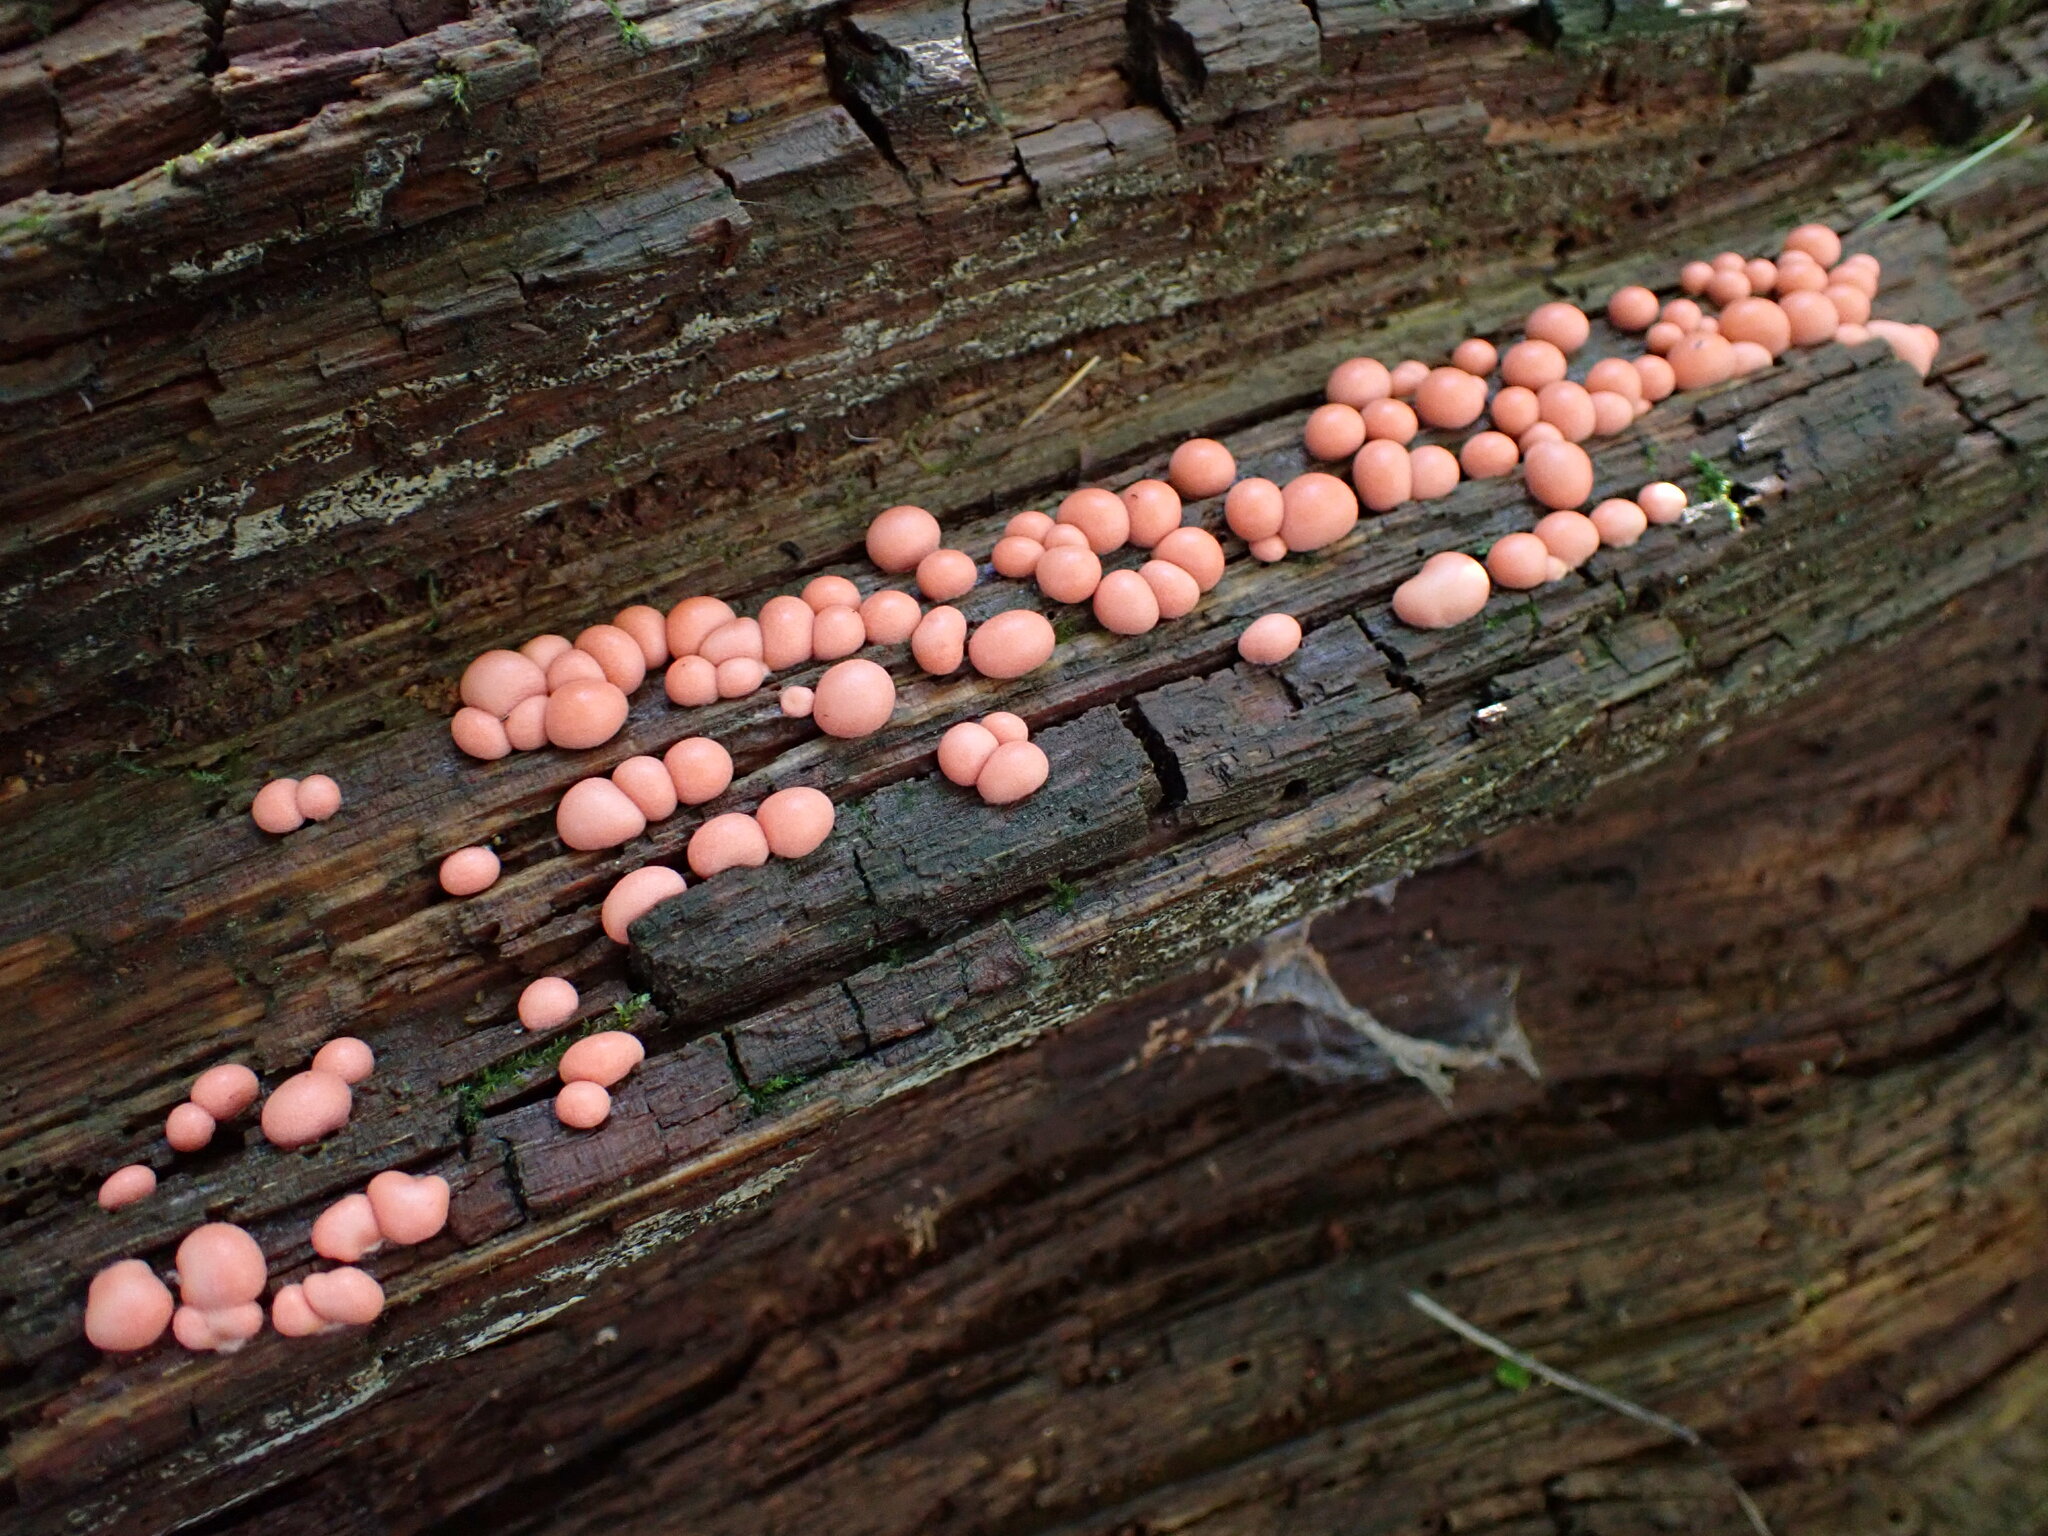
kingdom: Protozoa
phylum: Mycetozoa
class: Myxomycetes
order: Cribrariales
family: Tubiferaceae
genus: Lycogala
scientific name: Lycogala epidendrum
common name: Wolf's milk
